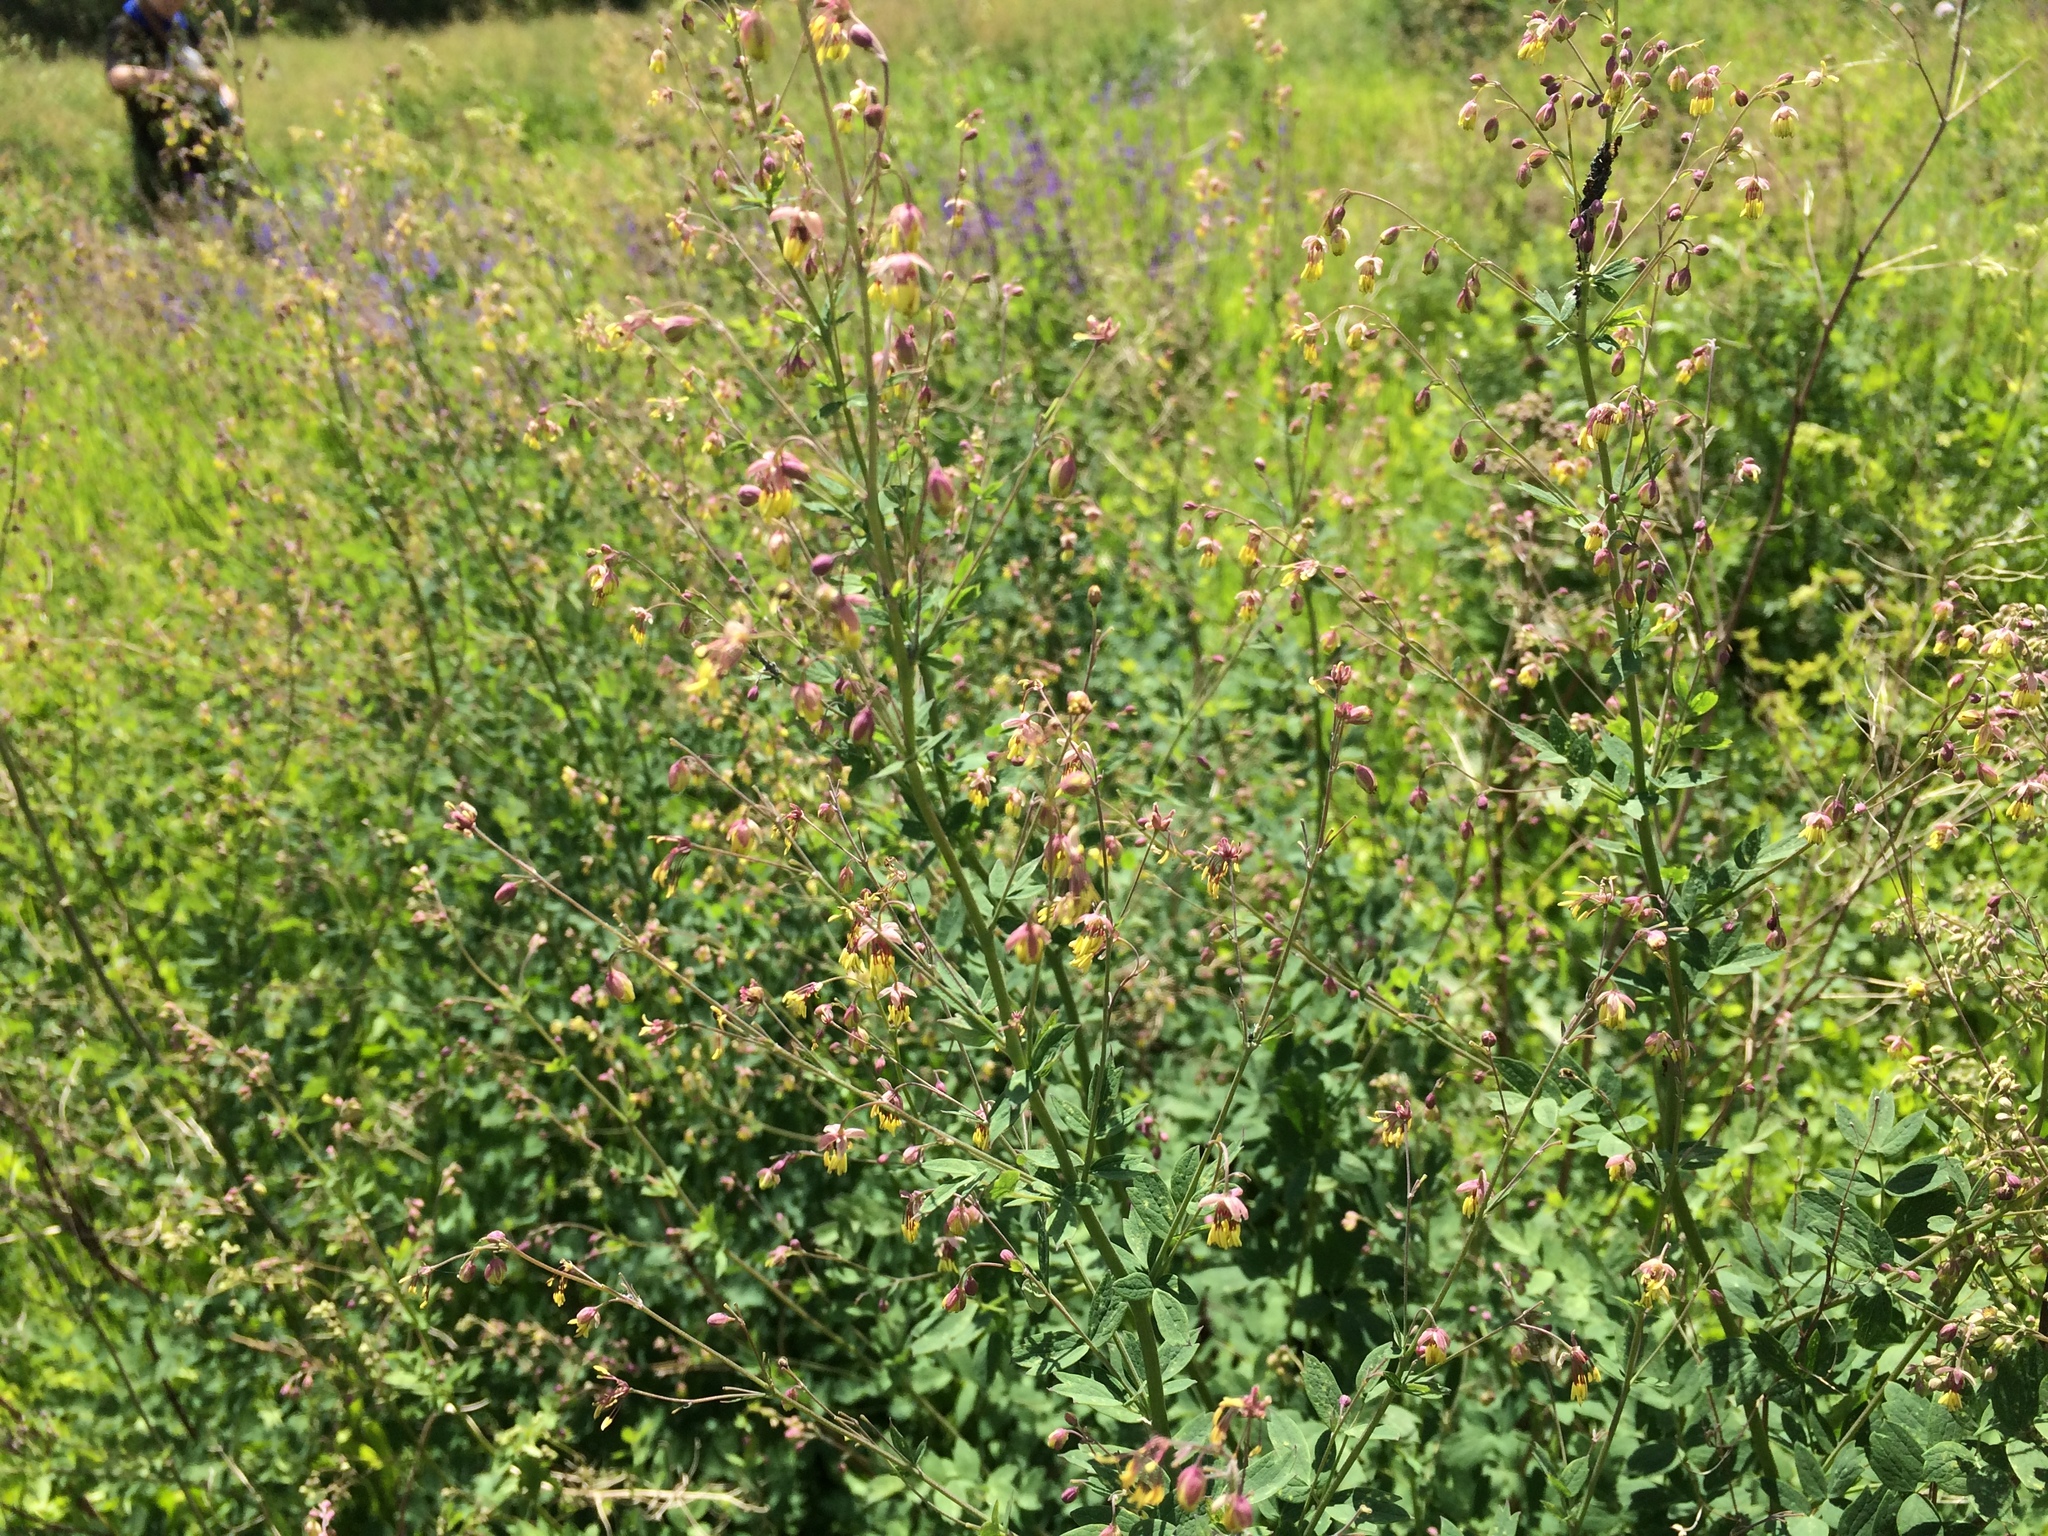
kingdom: Plantae
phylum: Tracheophyta
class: Magnoliopsida
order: Ranunculales
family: Ranunculaceae
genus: Thalictrum
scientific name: Thalictrum minus
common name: Lesser meadow-rue
